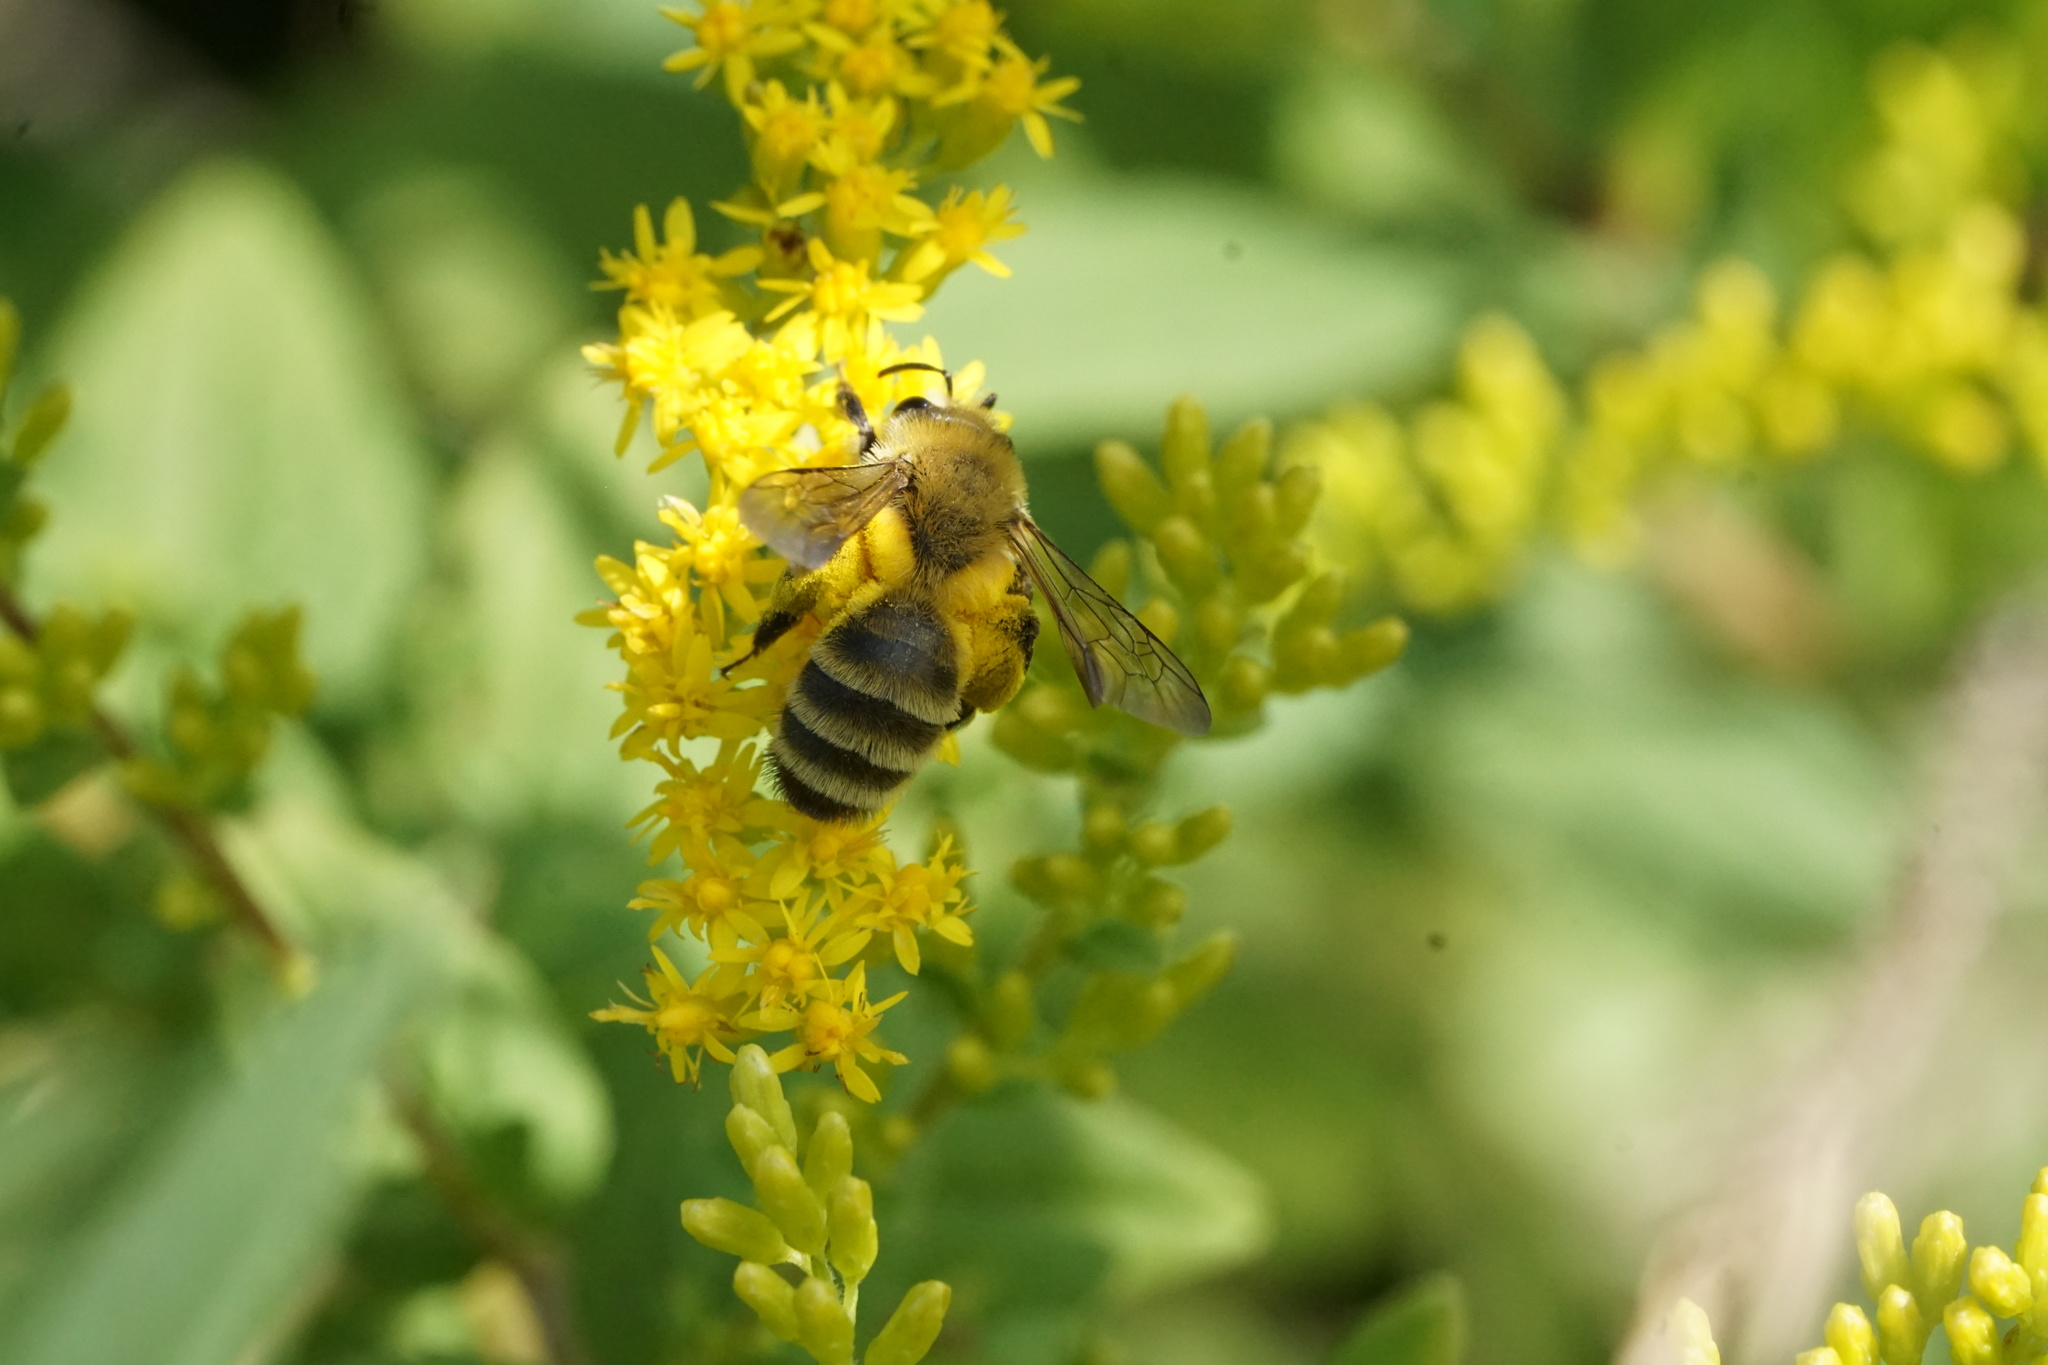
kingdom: Animalia
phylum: Arthropoda
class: Insecta
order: Hymenoptera
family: Andrenidae
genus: Andrena
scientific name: Andrena hirticincta
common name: Hairy-banded mining bee
